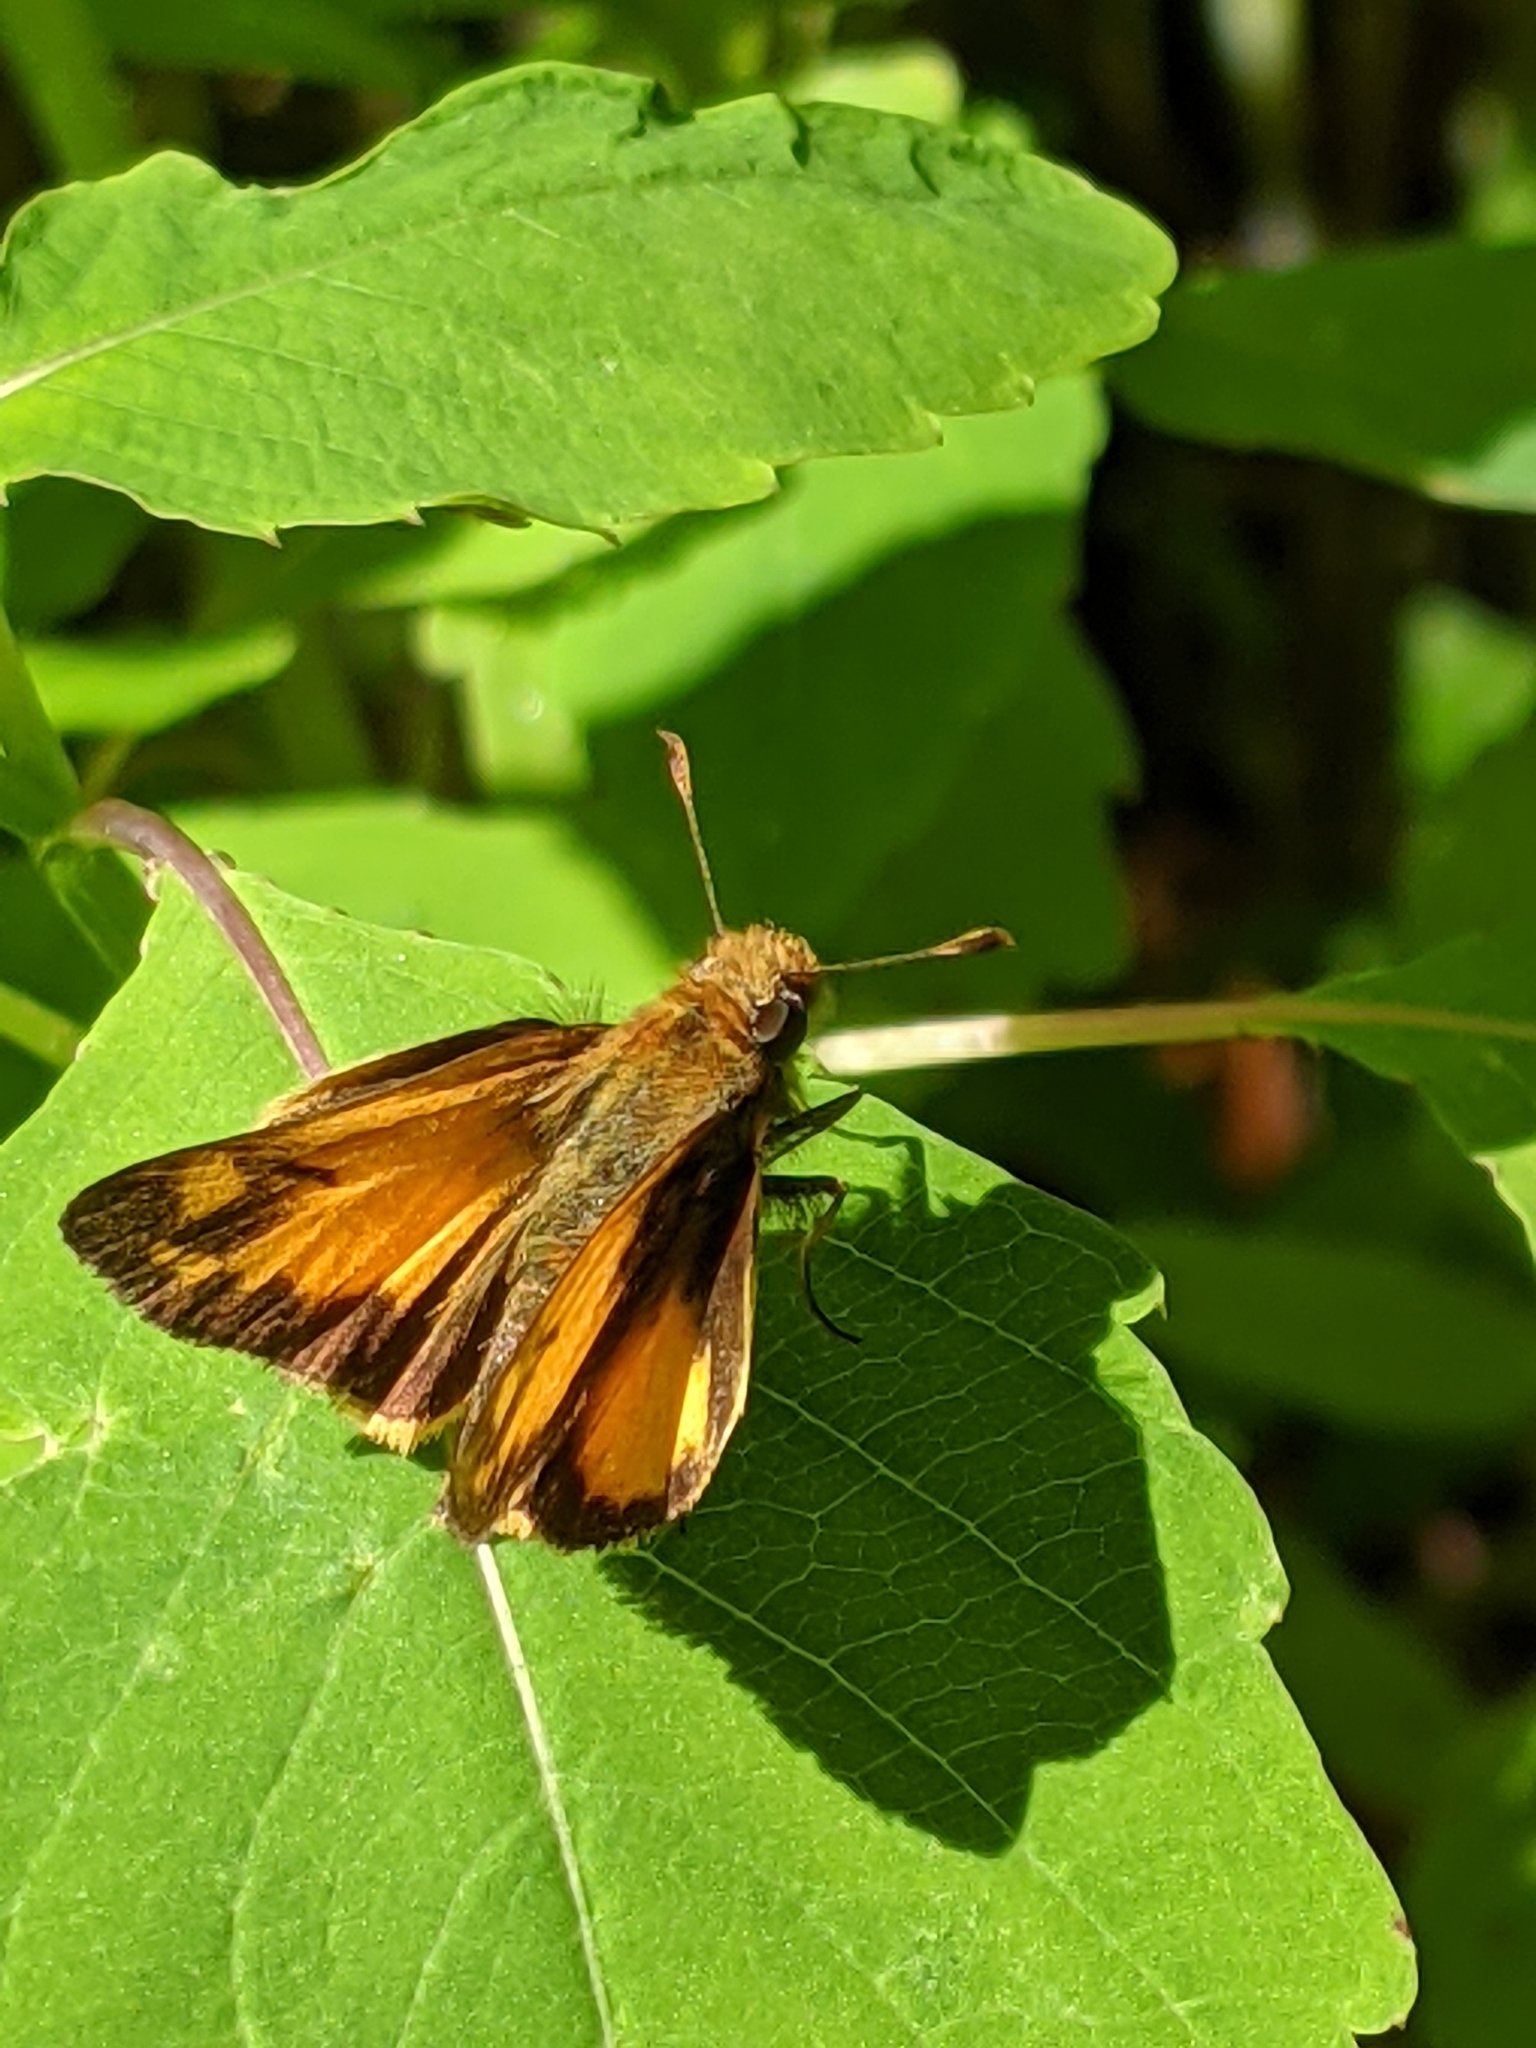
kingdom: Animalia
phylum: Arthropoda
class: Insecta
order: Lepidoptera
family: Hesperiidae
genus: Lon
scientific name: Lon zabulon
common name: Zabulon skipper
